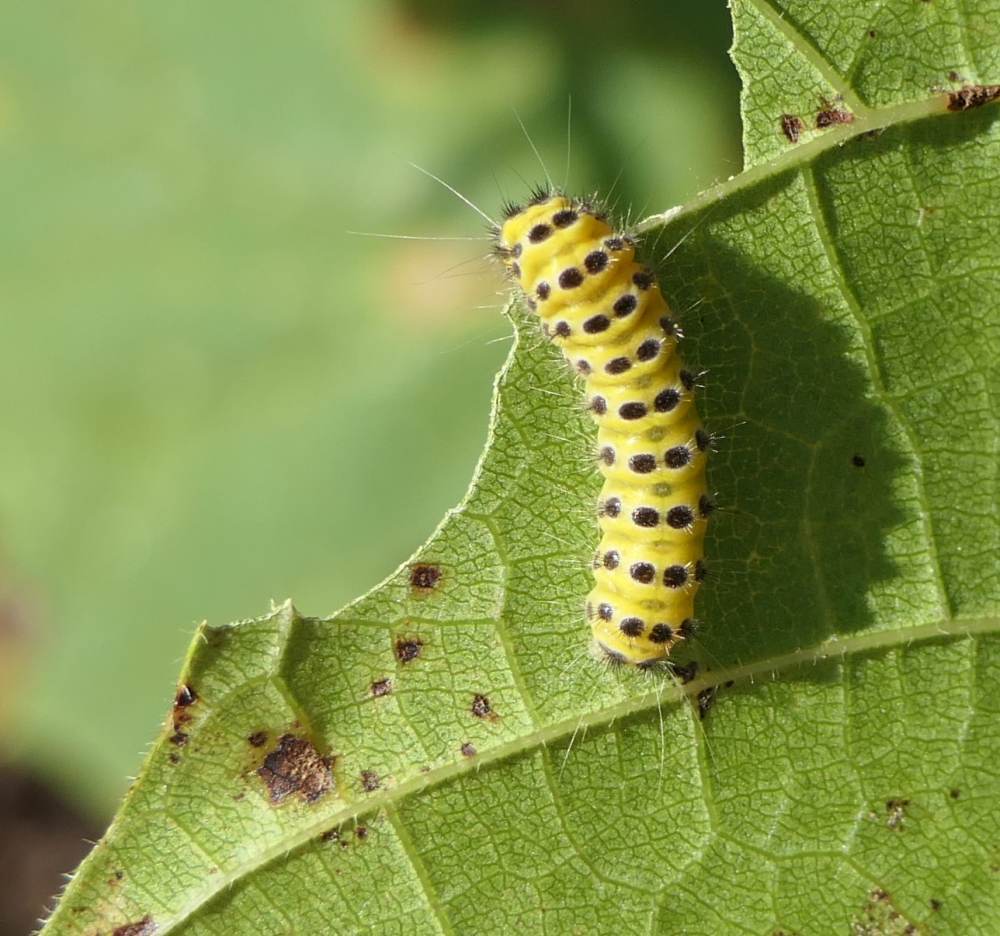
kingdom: Animalia
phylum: Arthropoda
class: Insecta
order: Lepidoptera
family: Zygaenidae
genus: Harrisina
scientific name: Harrisina americana
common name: Grapeleaf skeletonizer moth
